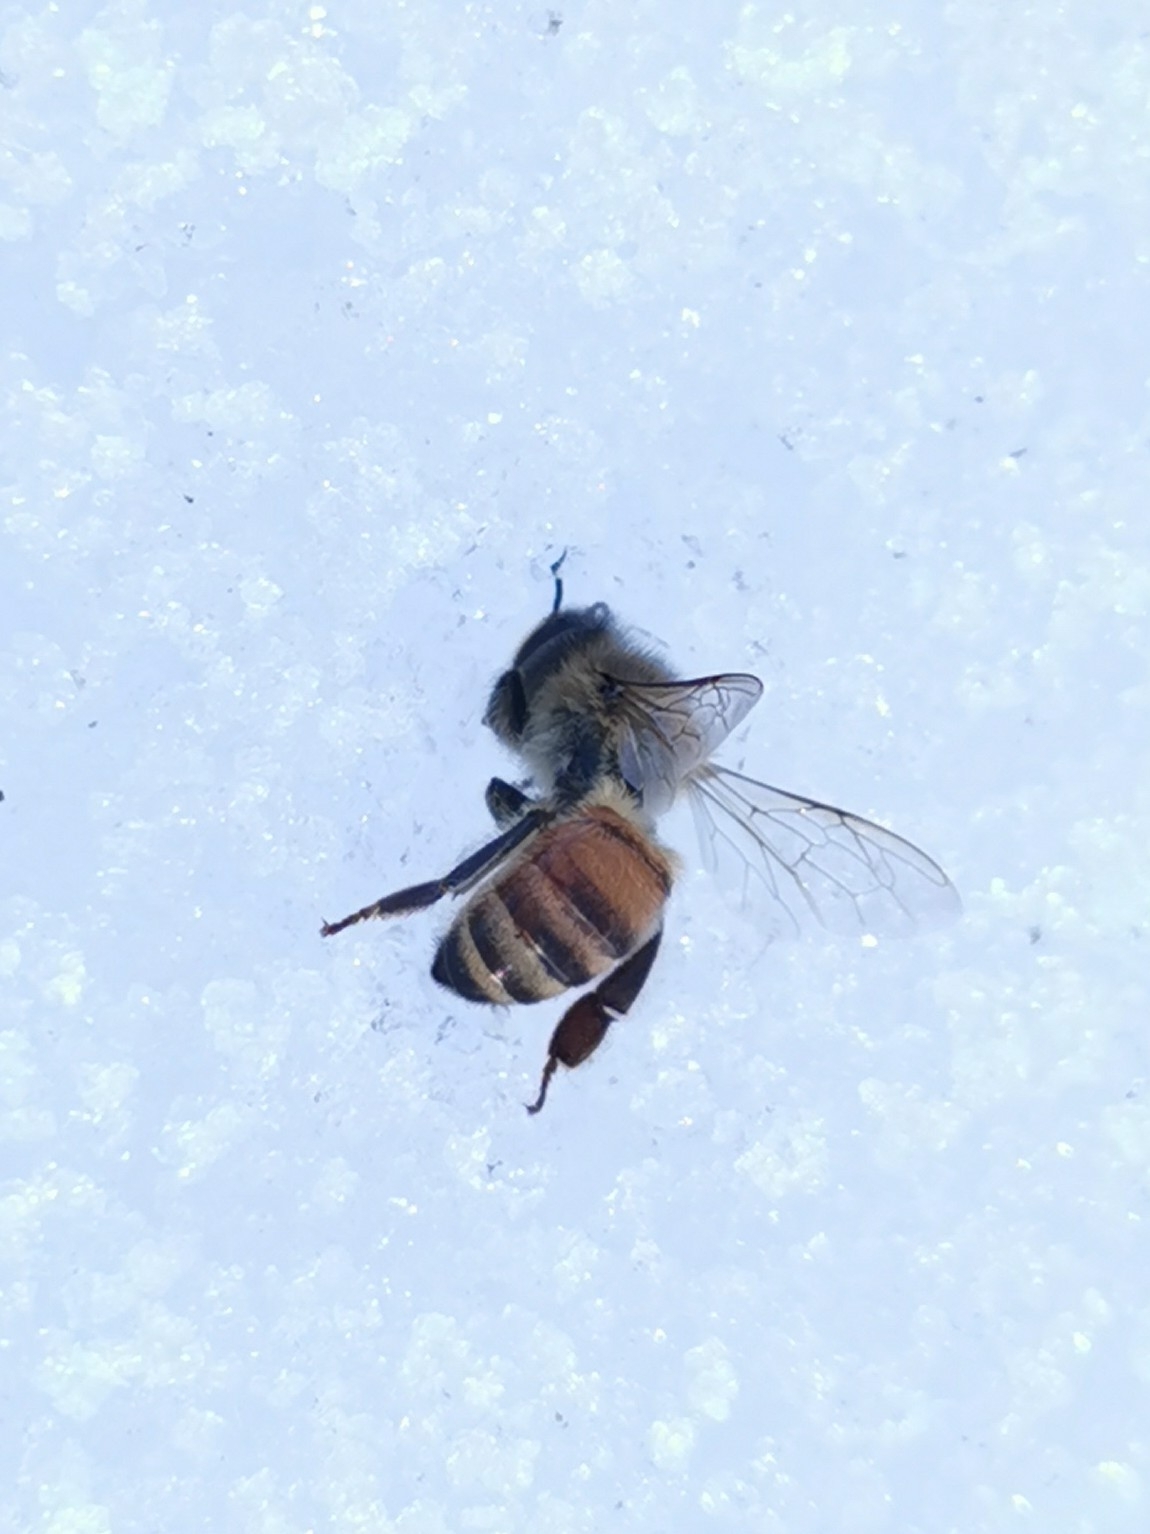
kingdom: Animalia
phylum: Arthropoda
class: Insecta
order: Hymenoptera
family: Apidae
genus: Apis
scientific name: Apis mellifera
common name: Honey bee
